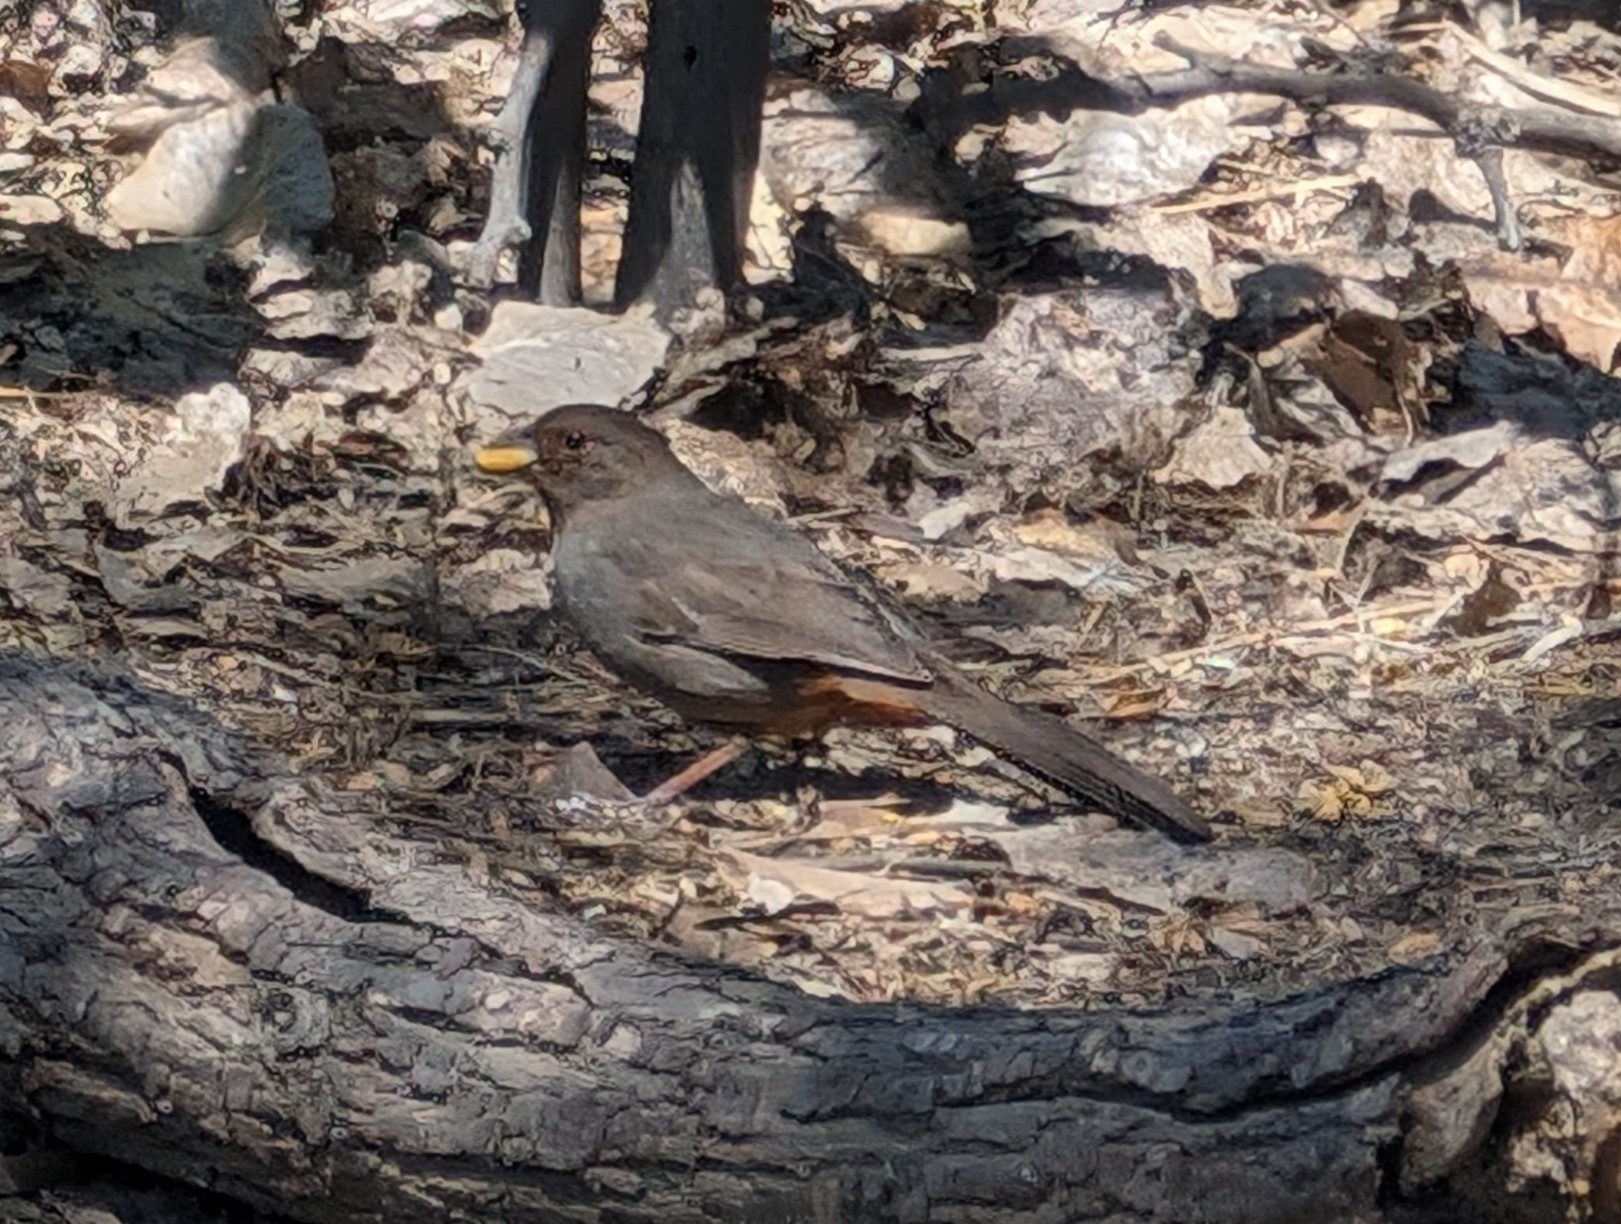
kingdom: Animalia
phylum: Chordata
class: Aves
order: Passeriformes
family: Passerellidae
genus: Melozone
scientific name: Melozone crissalis
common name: California towhee
